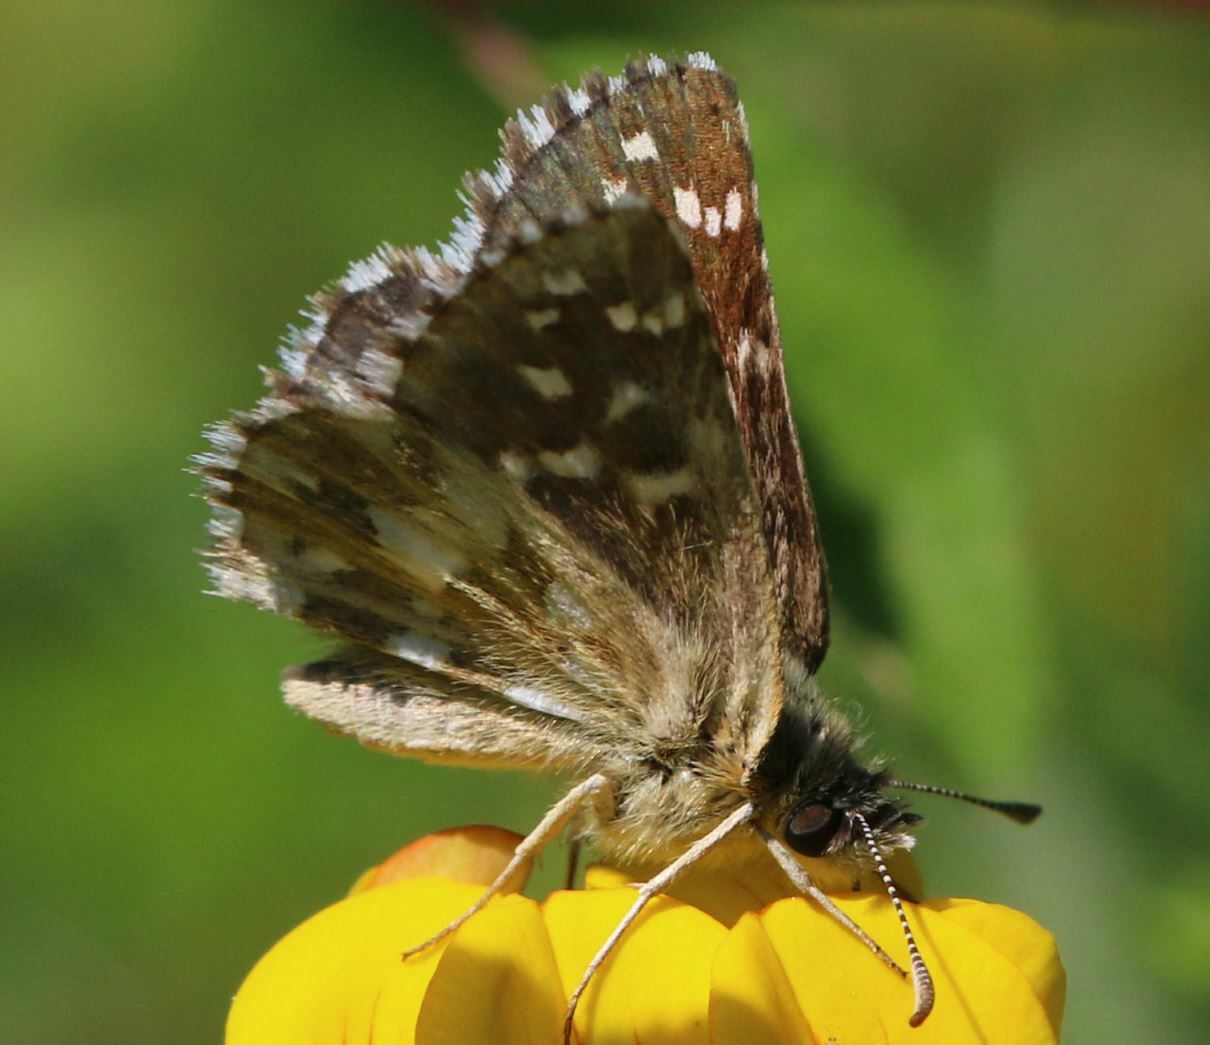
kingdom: Animalia
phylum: Arthropoda
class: Insecta
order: Lepidoptera
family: Hesperiidae
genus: Pyrgus
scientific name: Pyrgus malvoides
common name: Southern grizzled skipper
